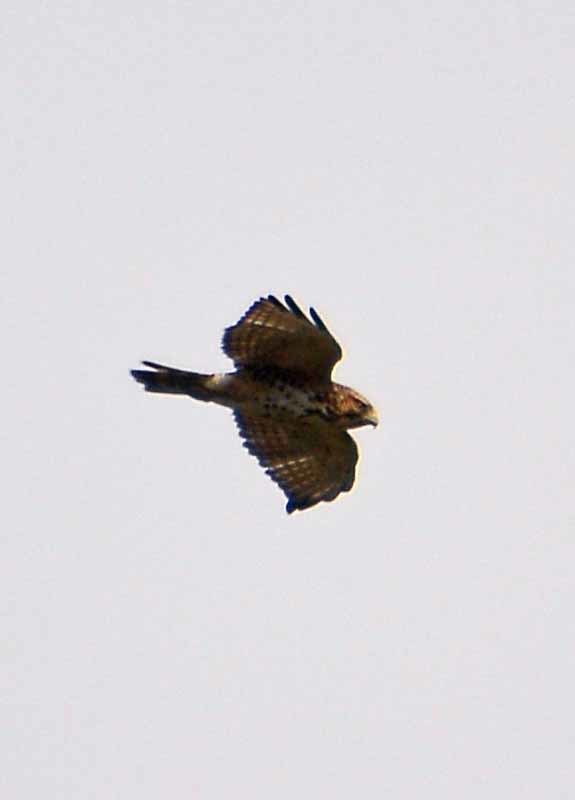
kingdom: Animalia
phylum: Chordata
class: Aves
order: Accipitriformes
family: Accipitridae
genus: Buteo
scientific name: Buteo platypterus
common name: Broad-winged hawk
